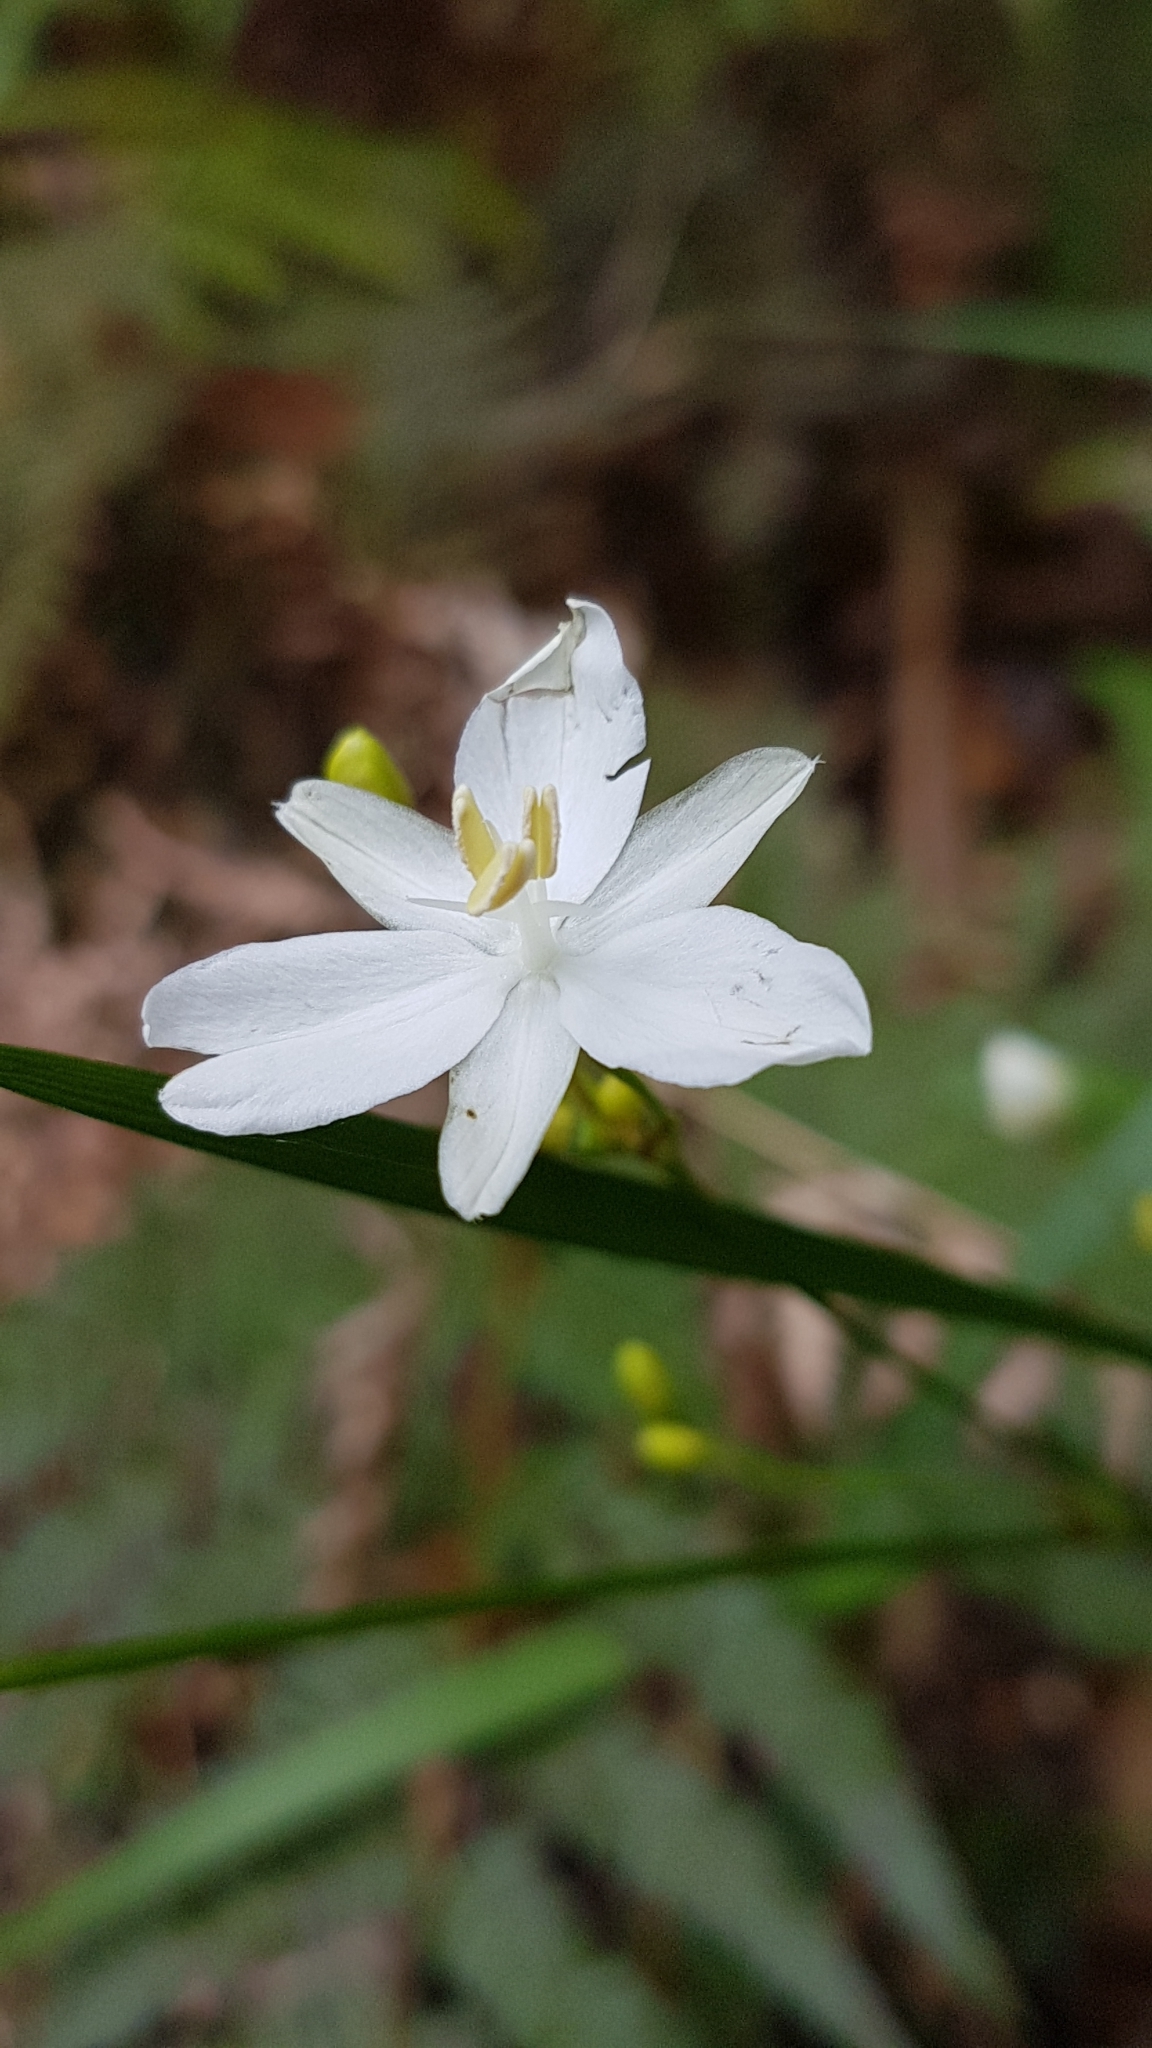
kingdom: Plantae
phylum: Tracheophyta
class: Liliopsida
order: Asparagales
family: Iridaceae
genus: Libertia
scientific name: Libertia paniculata
